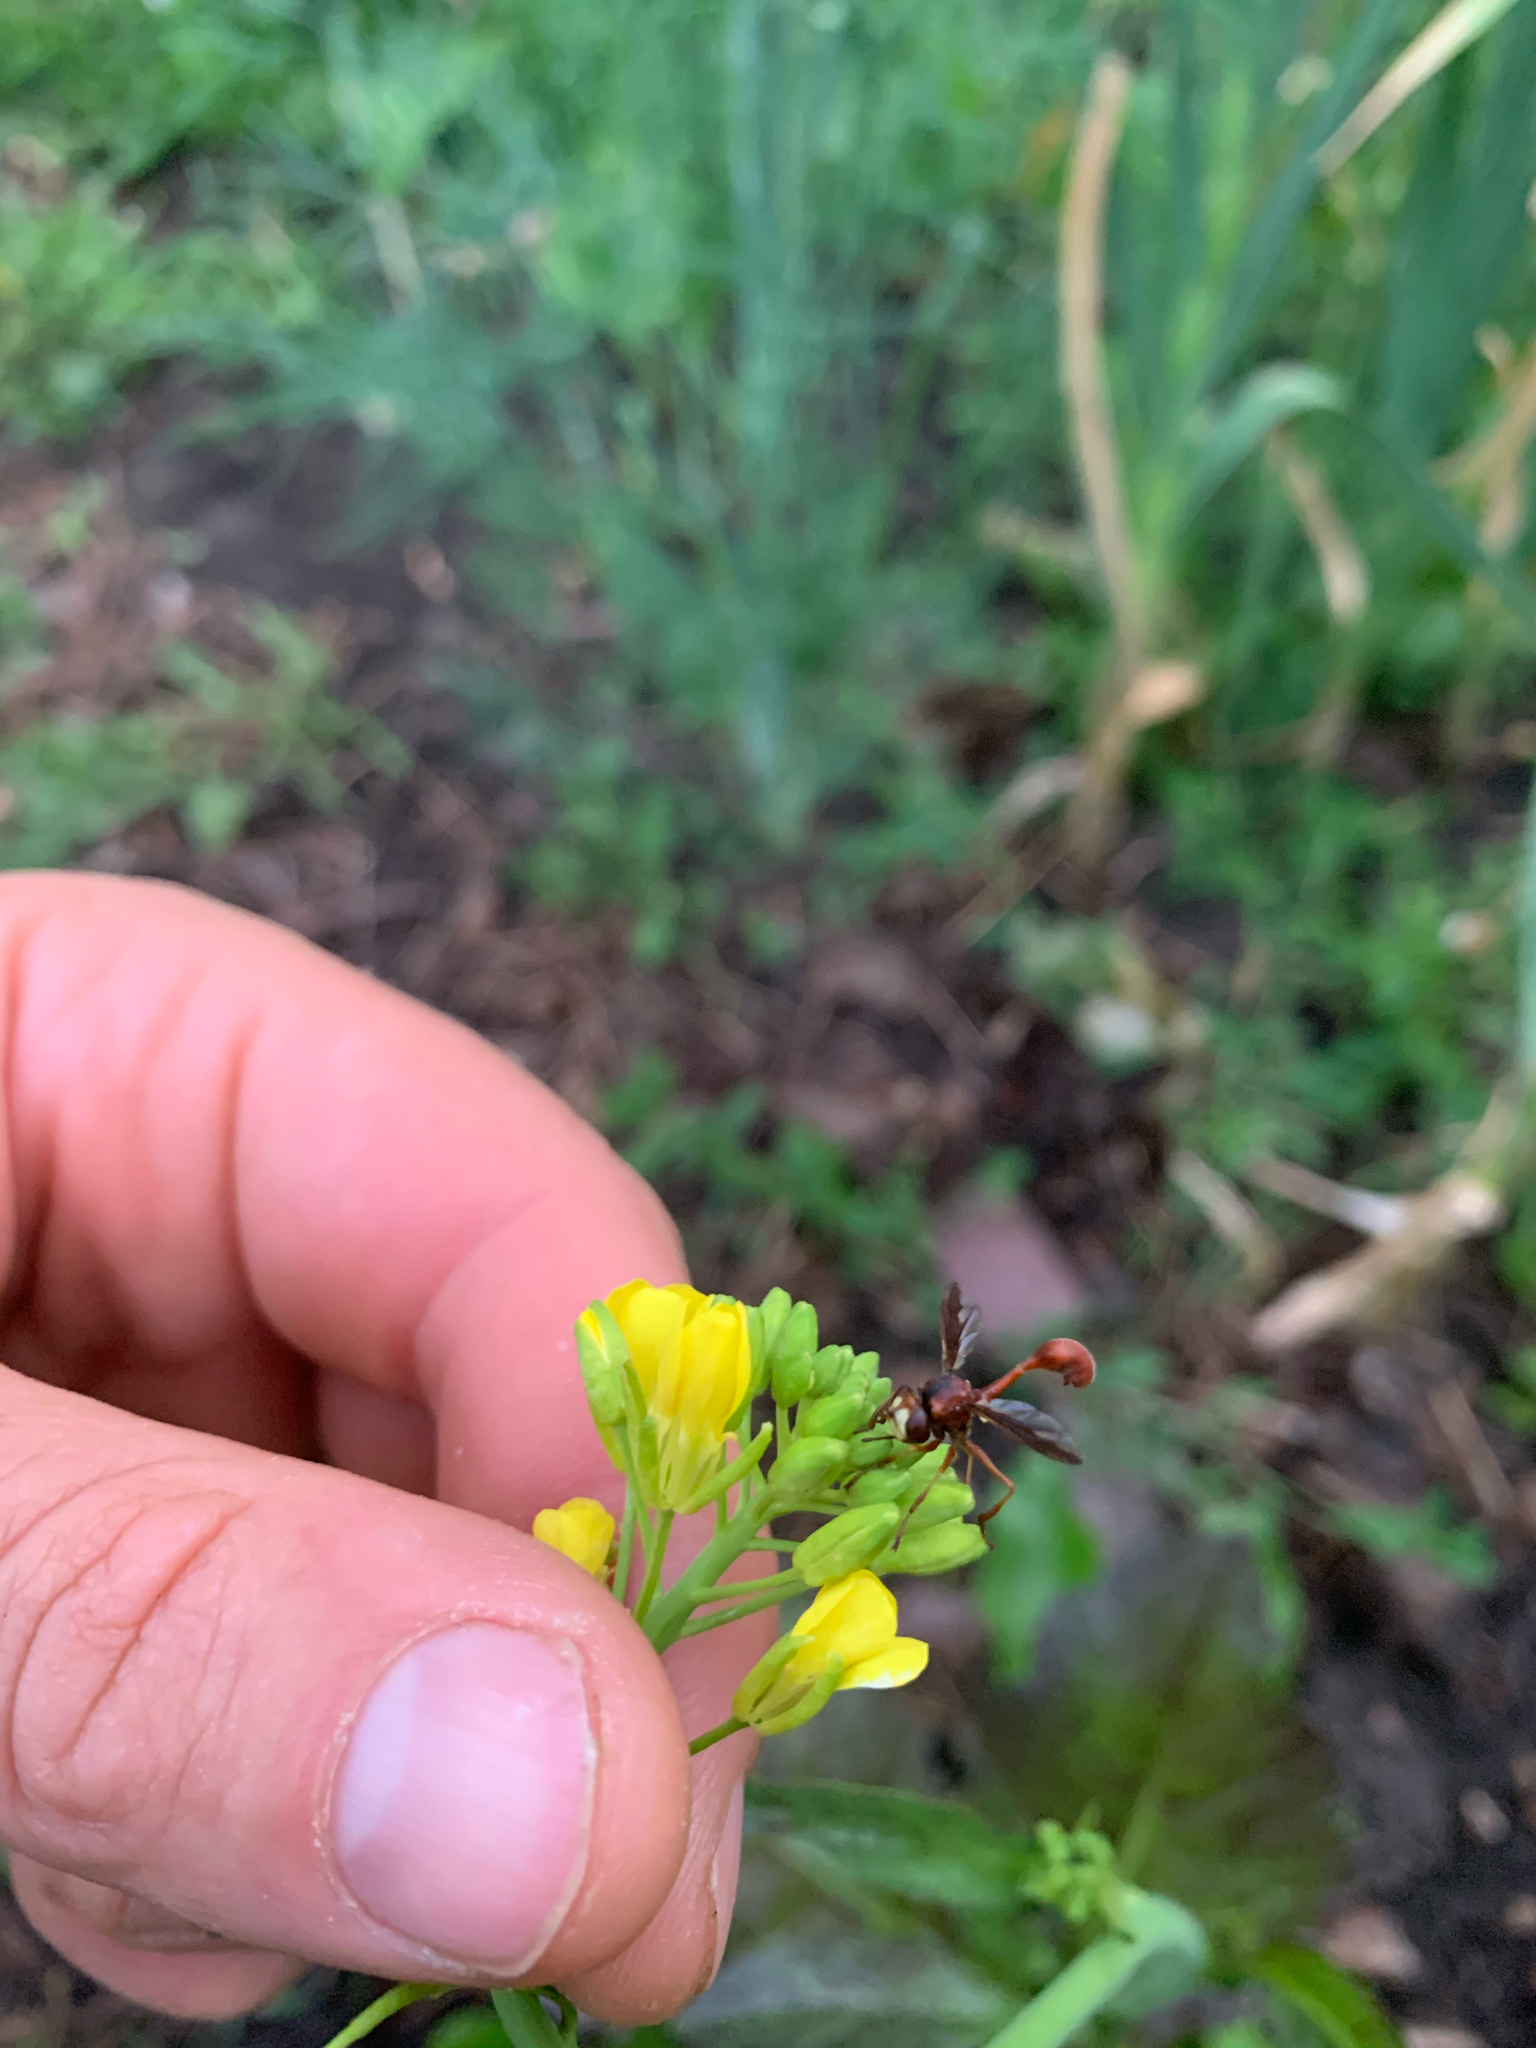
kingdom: Animalia
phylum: Arthropoda
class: Insecta
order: Diptera
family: Conopidae
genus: Physocephala
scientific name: Physocephala burgessi
